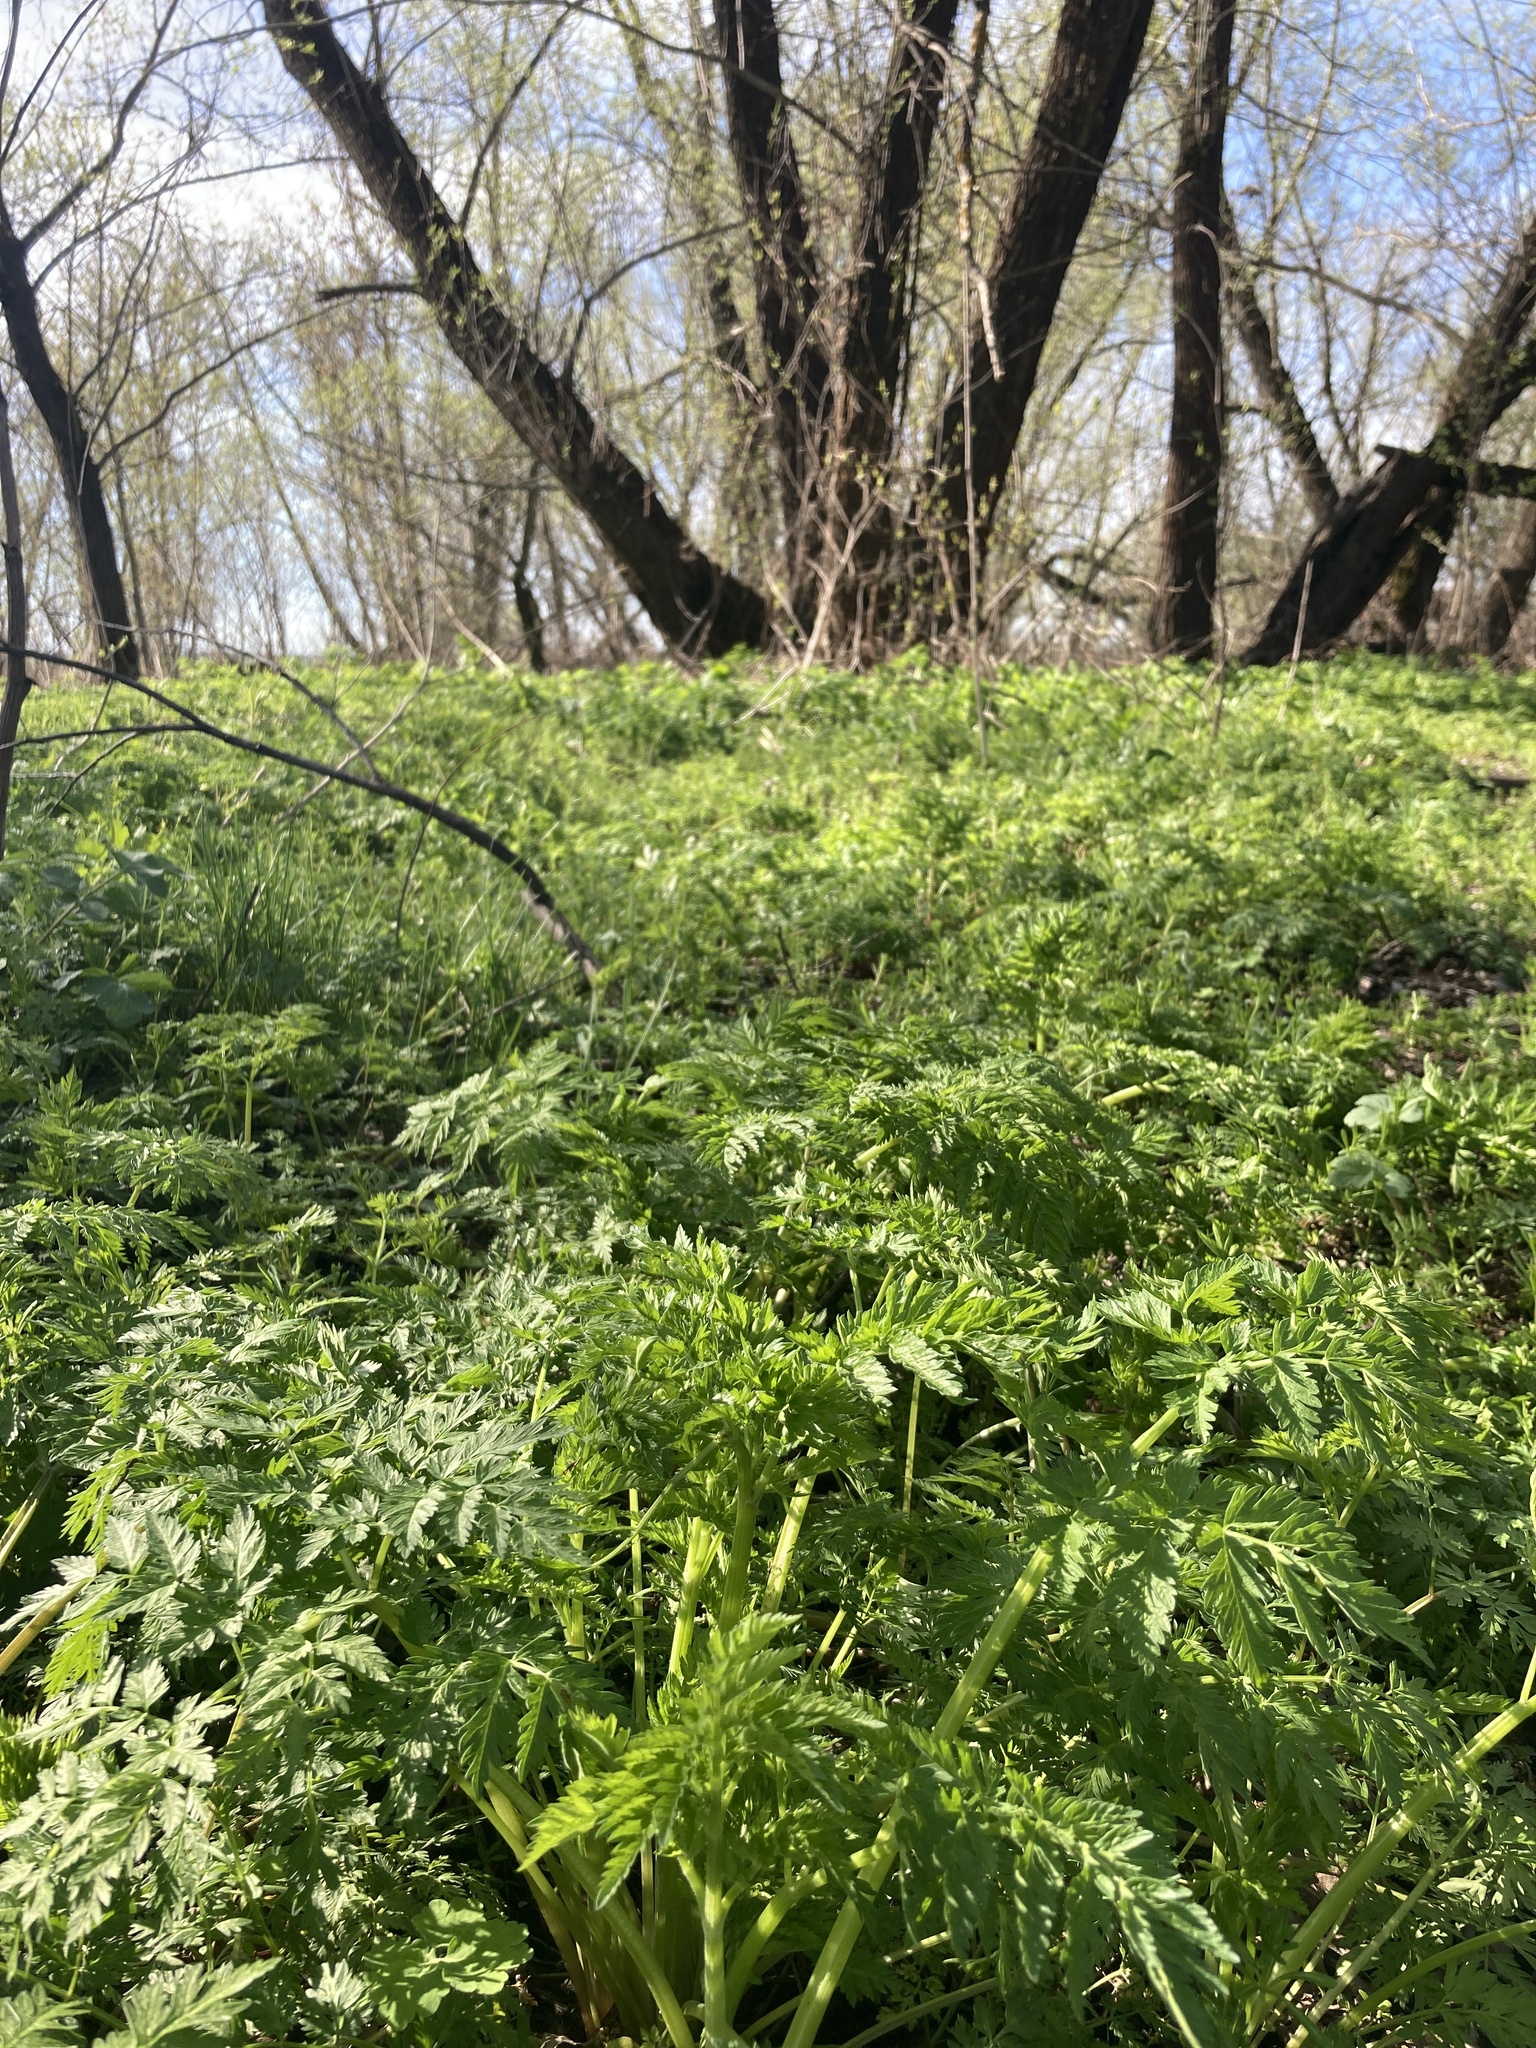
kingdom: Plantae
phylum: Tracheophyta
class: Magnoliopsida
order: Apiales
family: Apiaceae
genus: Anthriscus
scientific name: Anthriscus sylvestris
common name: Cow parsley
